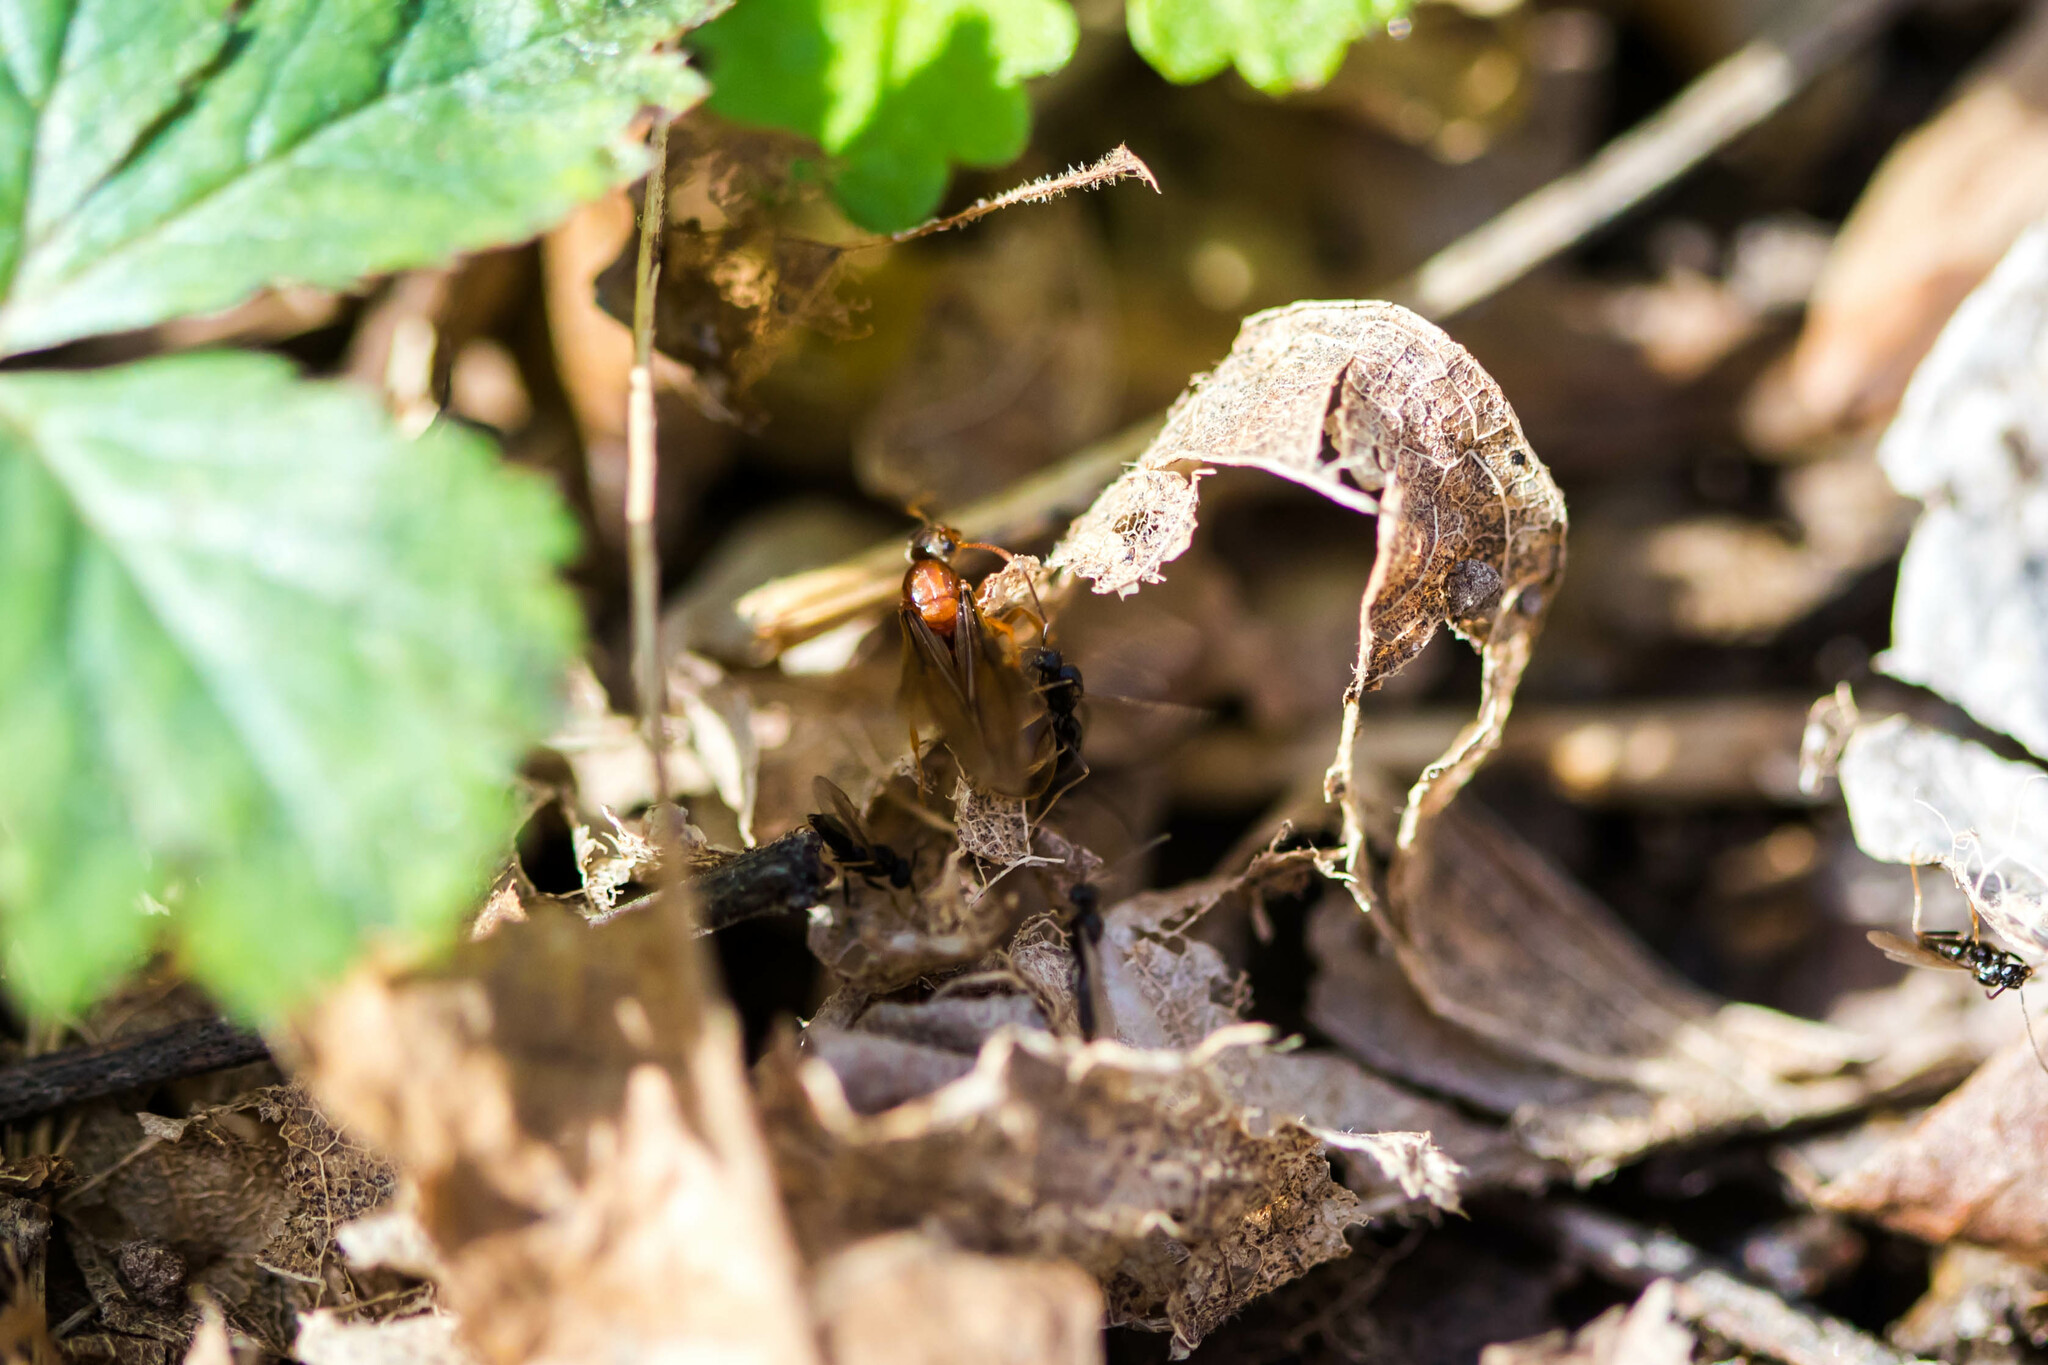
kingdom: Animalia
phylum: Arthropoda
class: Insecta
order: Hymenoptera
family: Formicidae
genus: Prenolepis
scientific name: Prenolepis imparis
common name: Small honey ant
